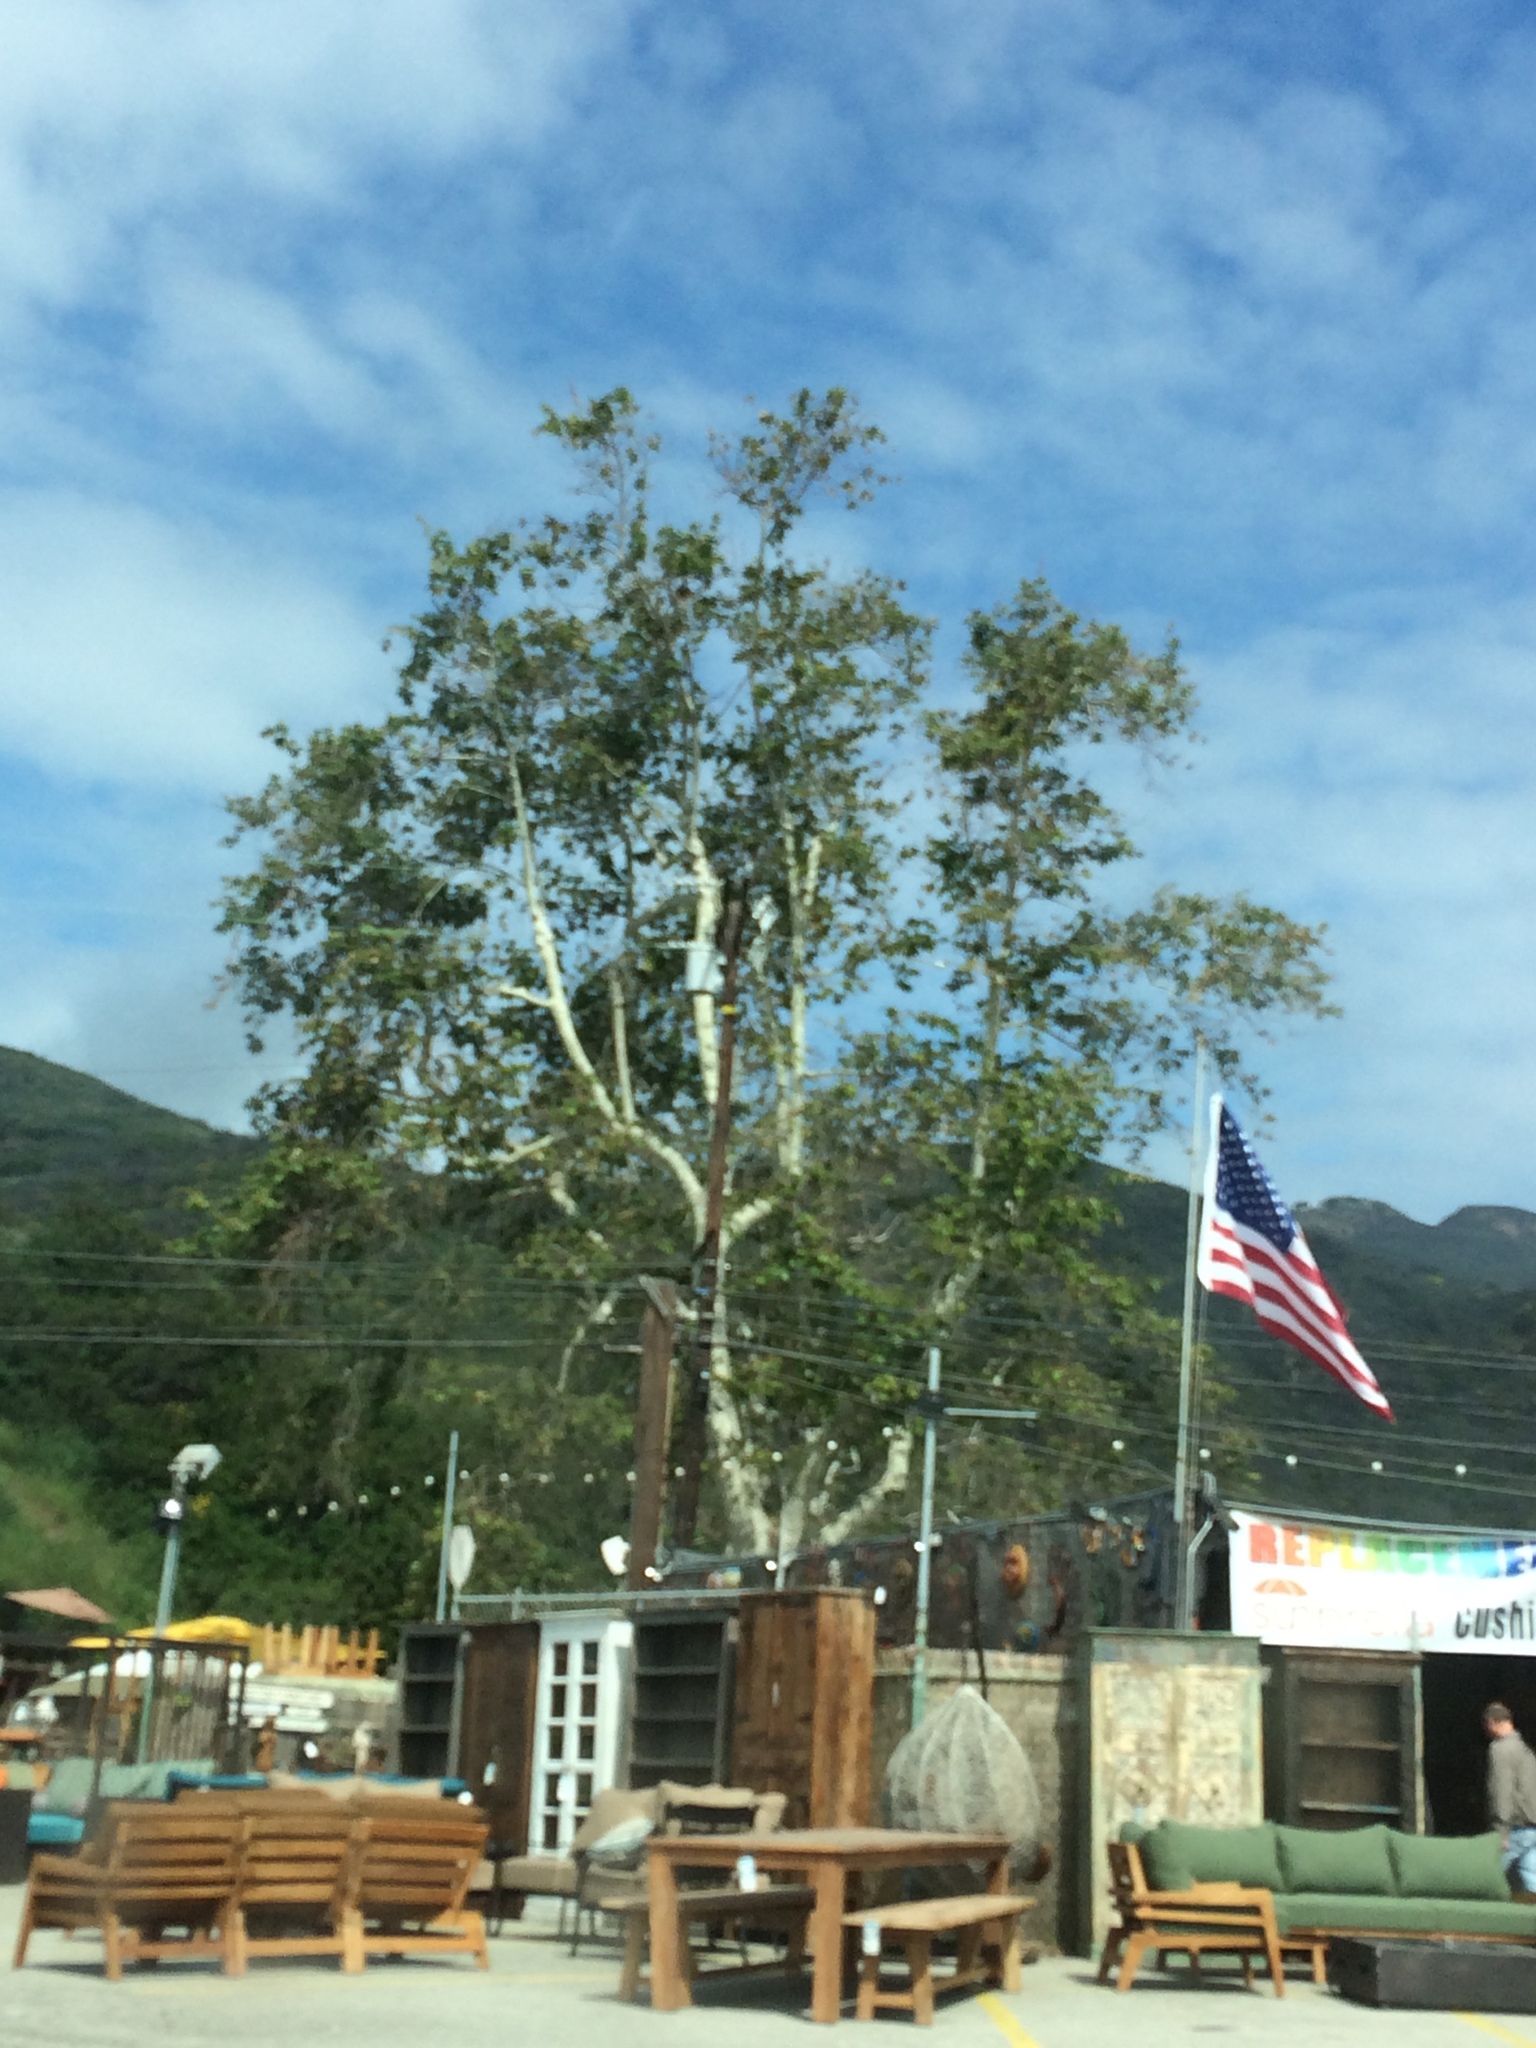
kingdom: Plantae
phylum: Tracheophyta
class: Magnoliopsida
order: Proteales
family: Platanaceae
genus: Platanus
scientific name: Platanus racemosa
